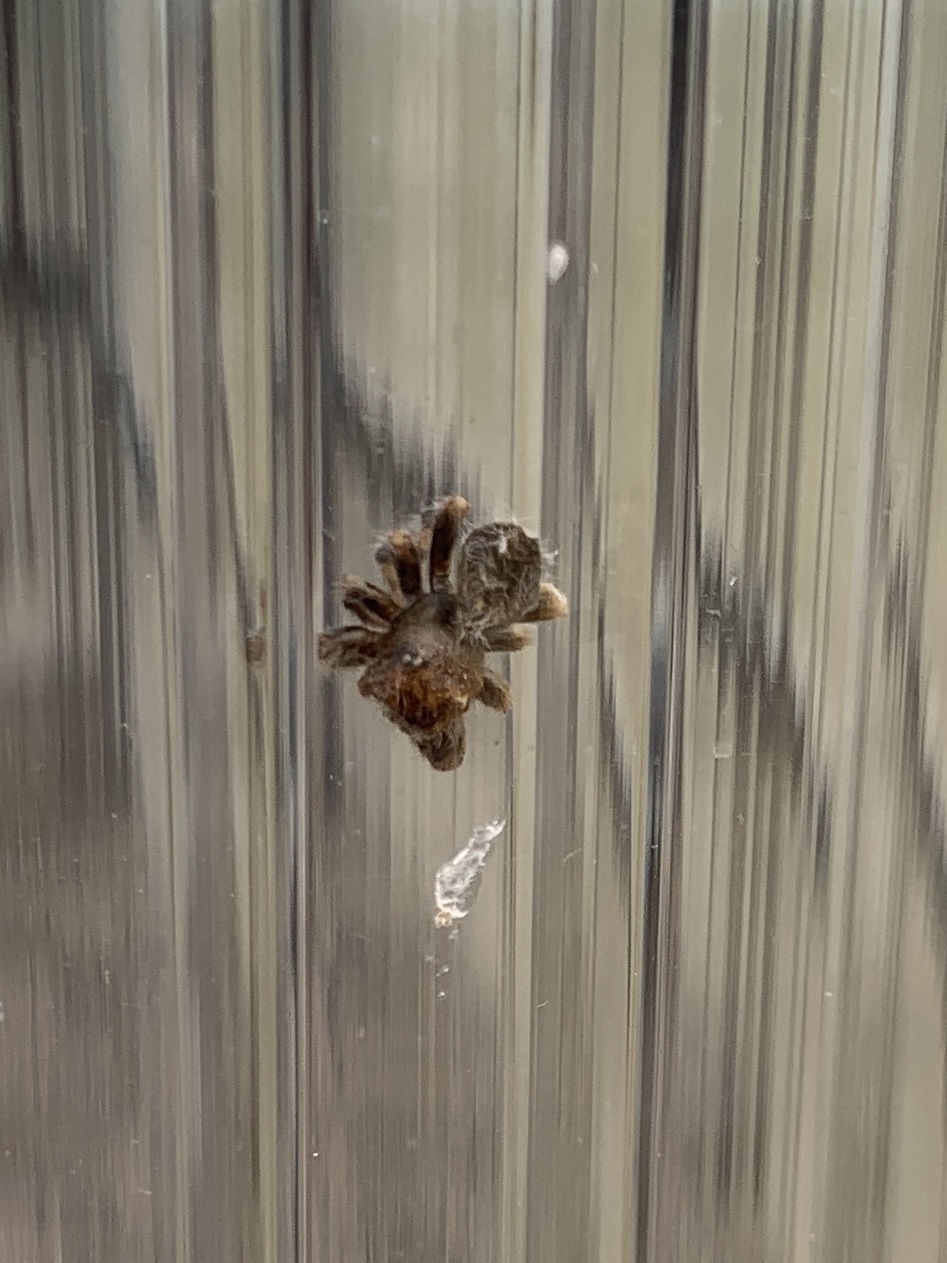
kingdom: Animalia
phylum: Arthropoda
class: Arachnida
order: Araneae
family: Salticidae
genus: Phidippus
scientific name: Phidippus audax
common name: Bold jumper
